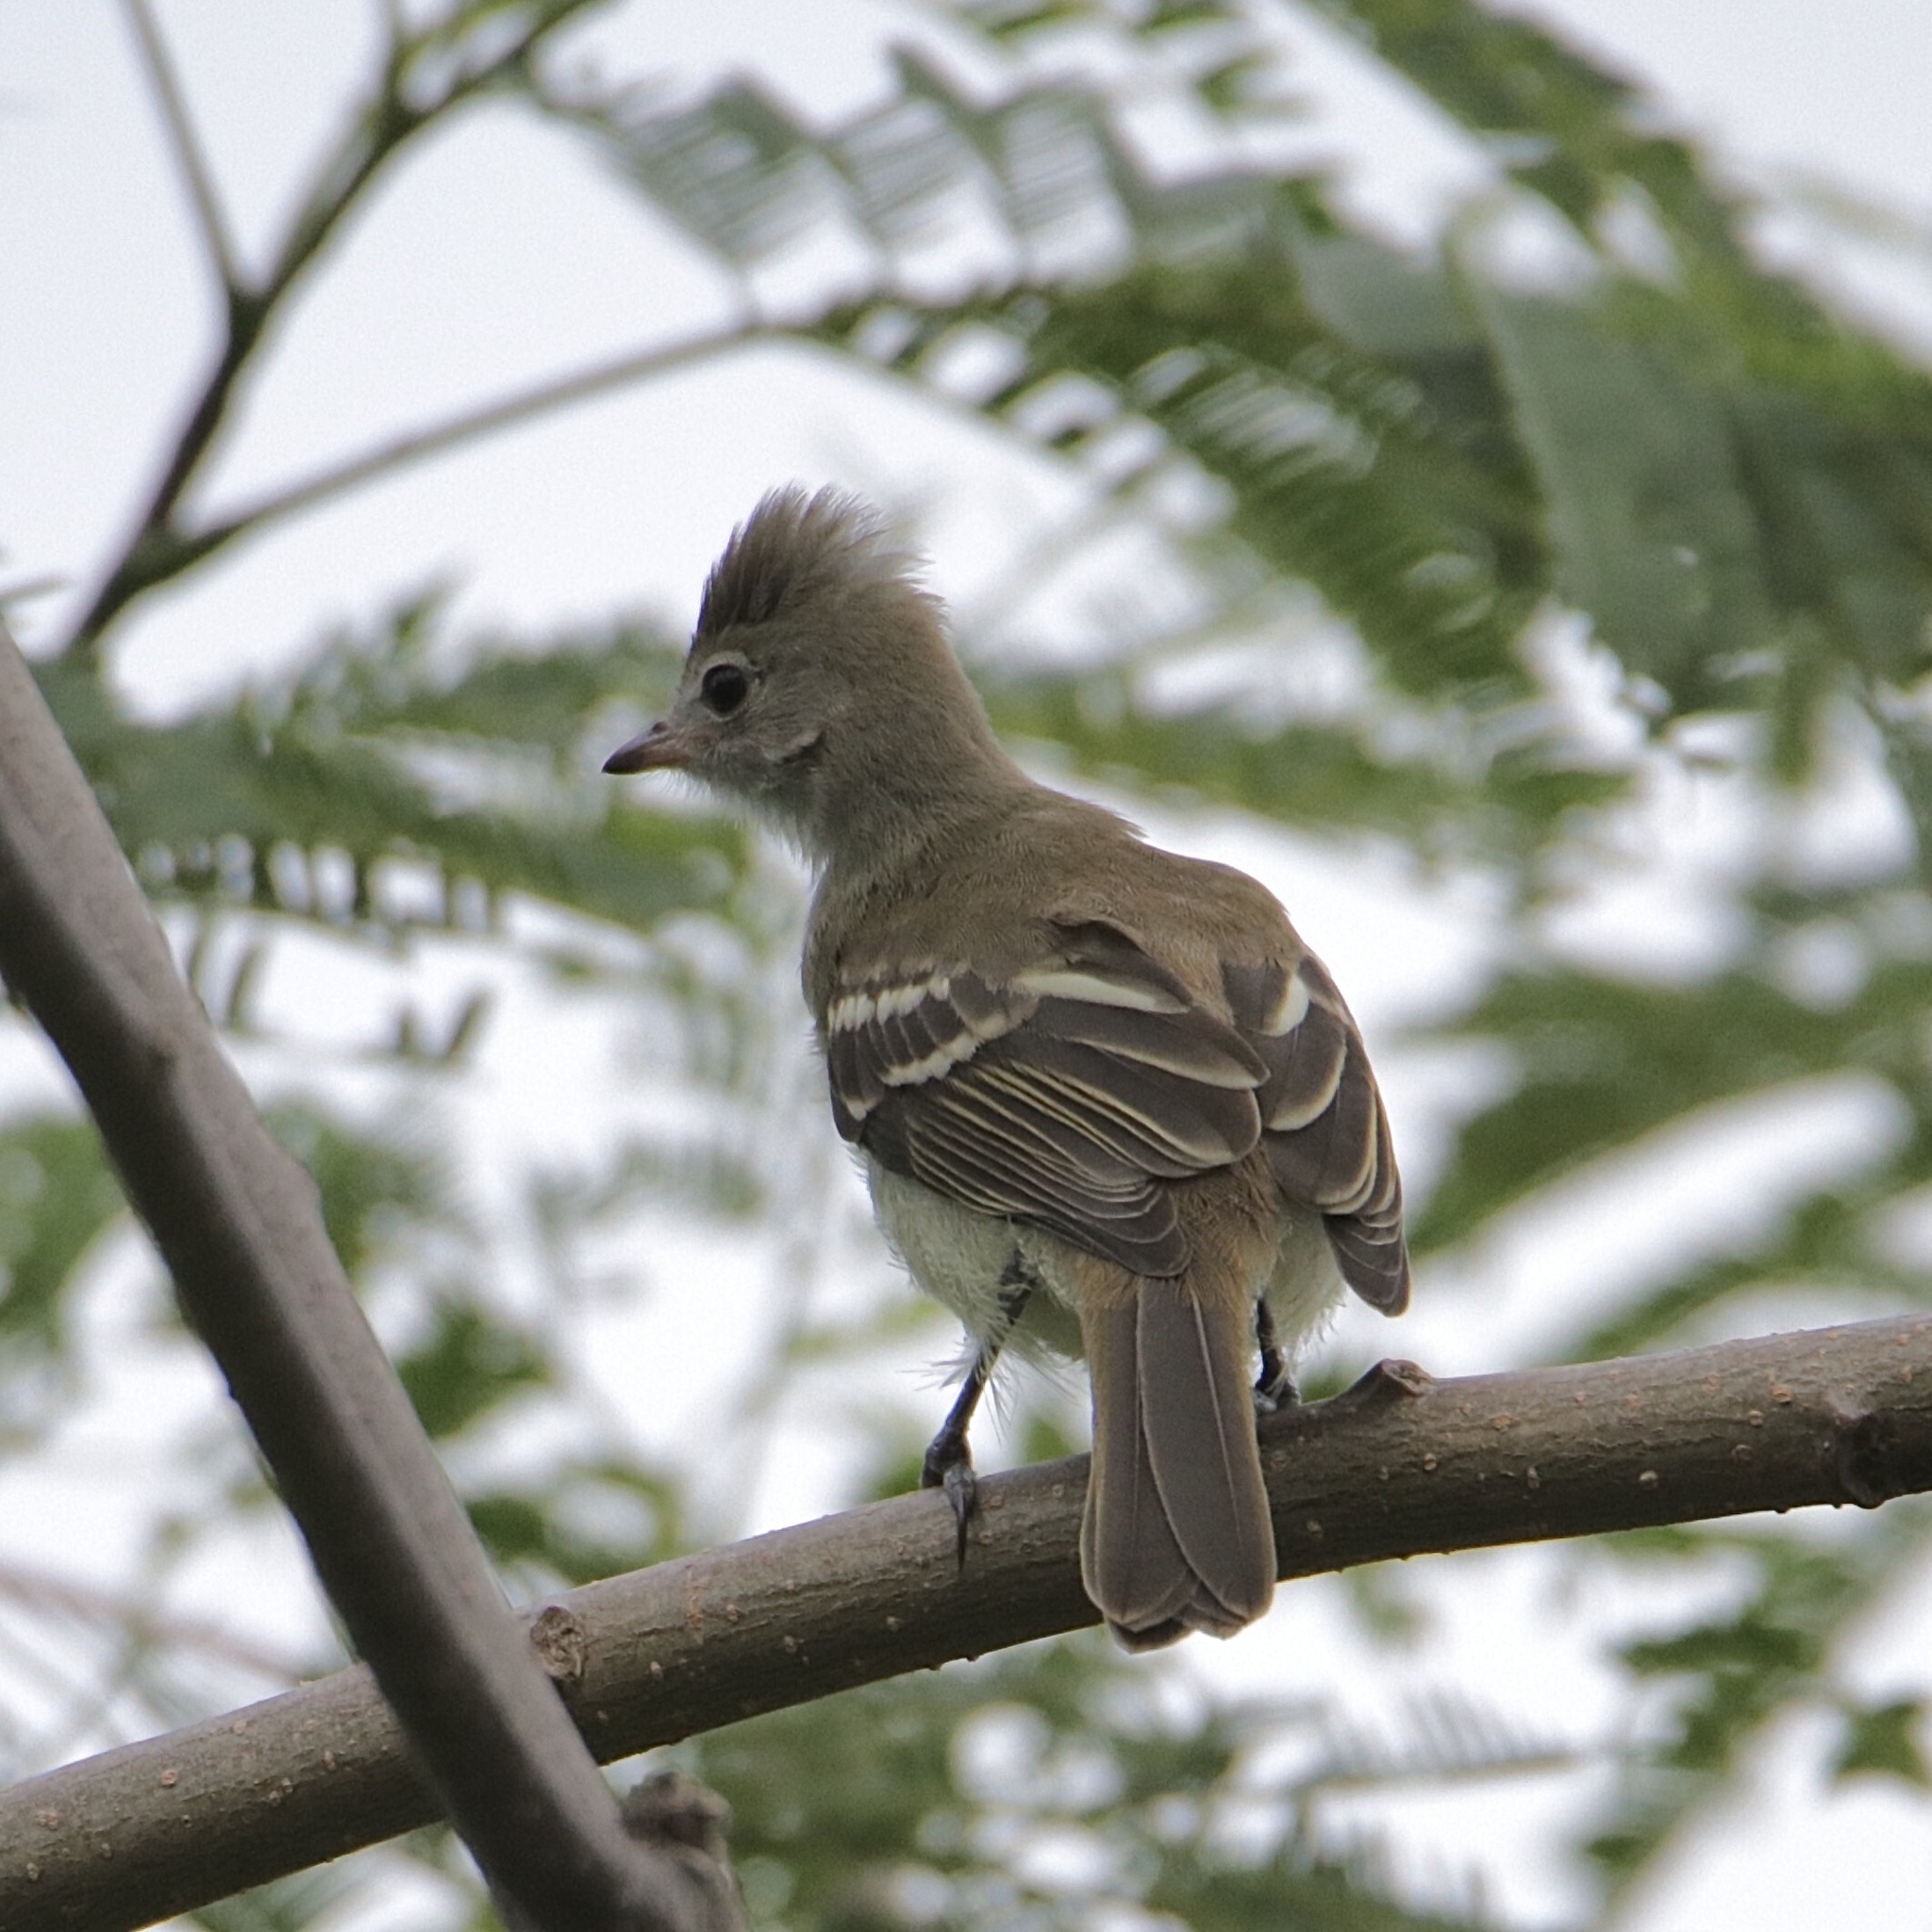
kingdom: Animalia
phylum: Chordata
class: Aves
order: Passeriformes
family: Tyrannidae
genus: Elaenia
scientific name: Elaenia flavogaster
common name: Yellow-bellied elaenia
